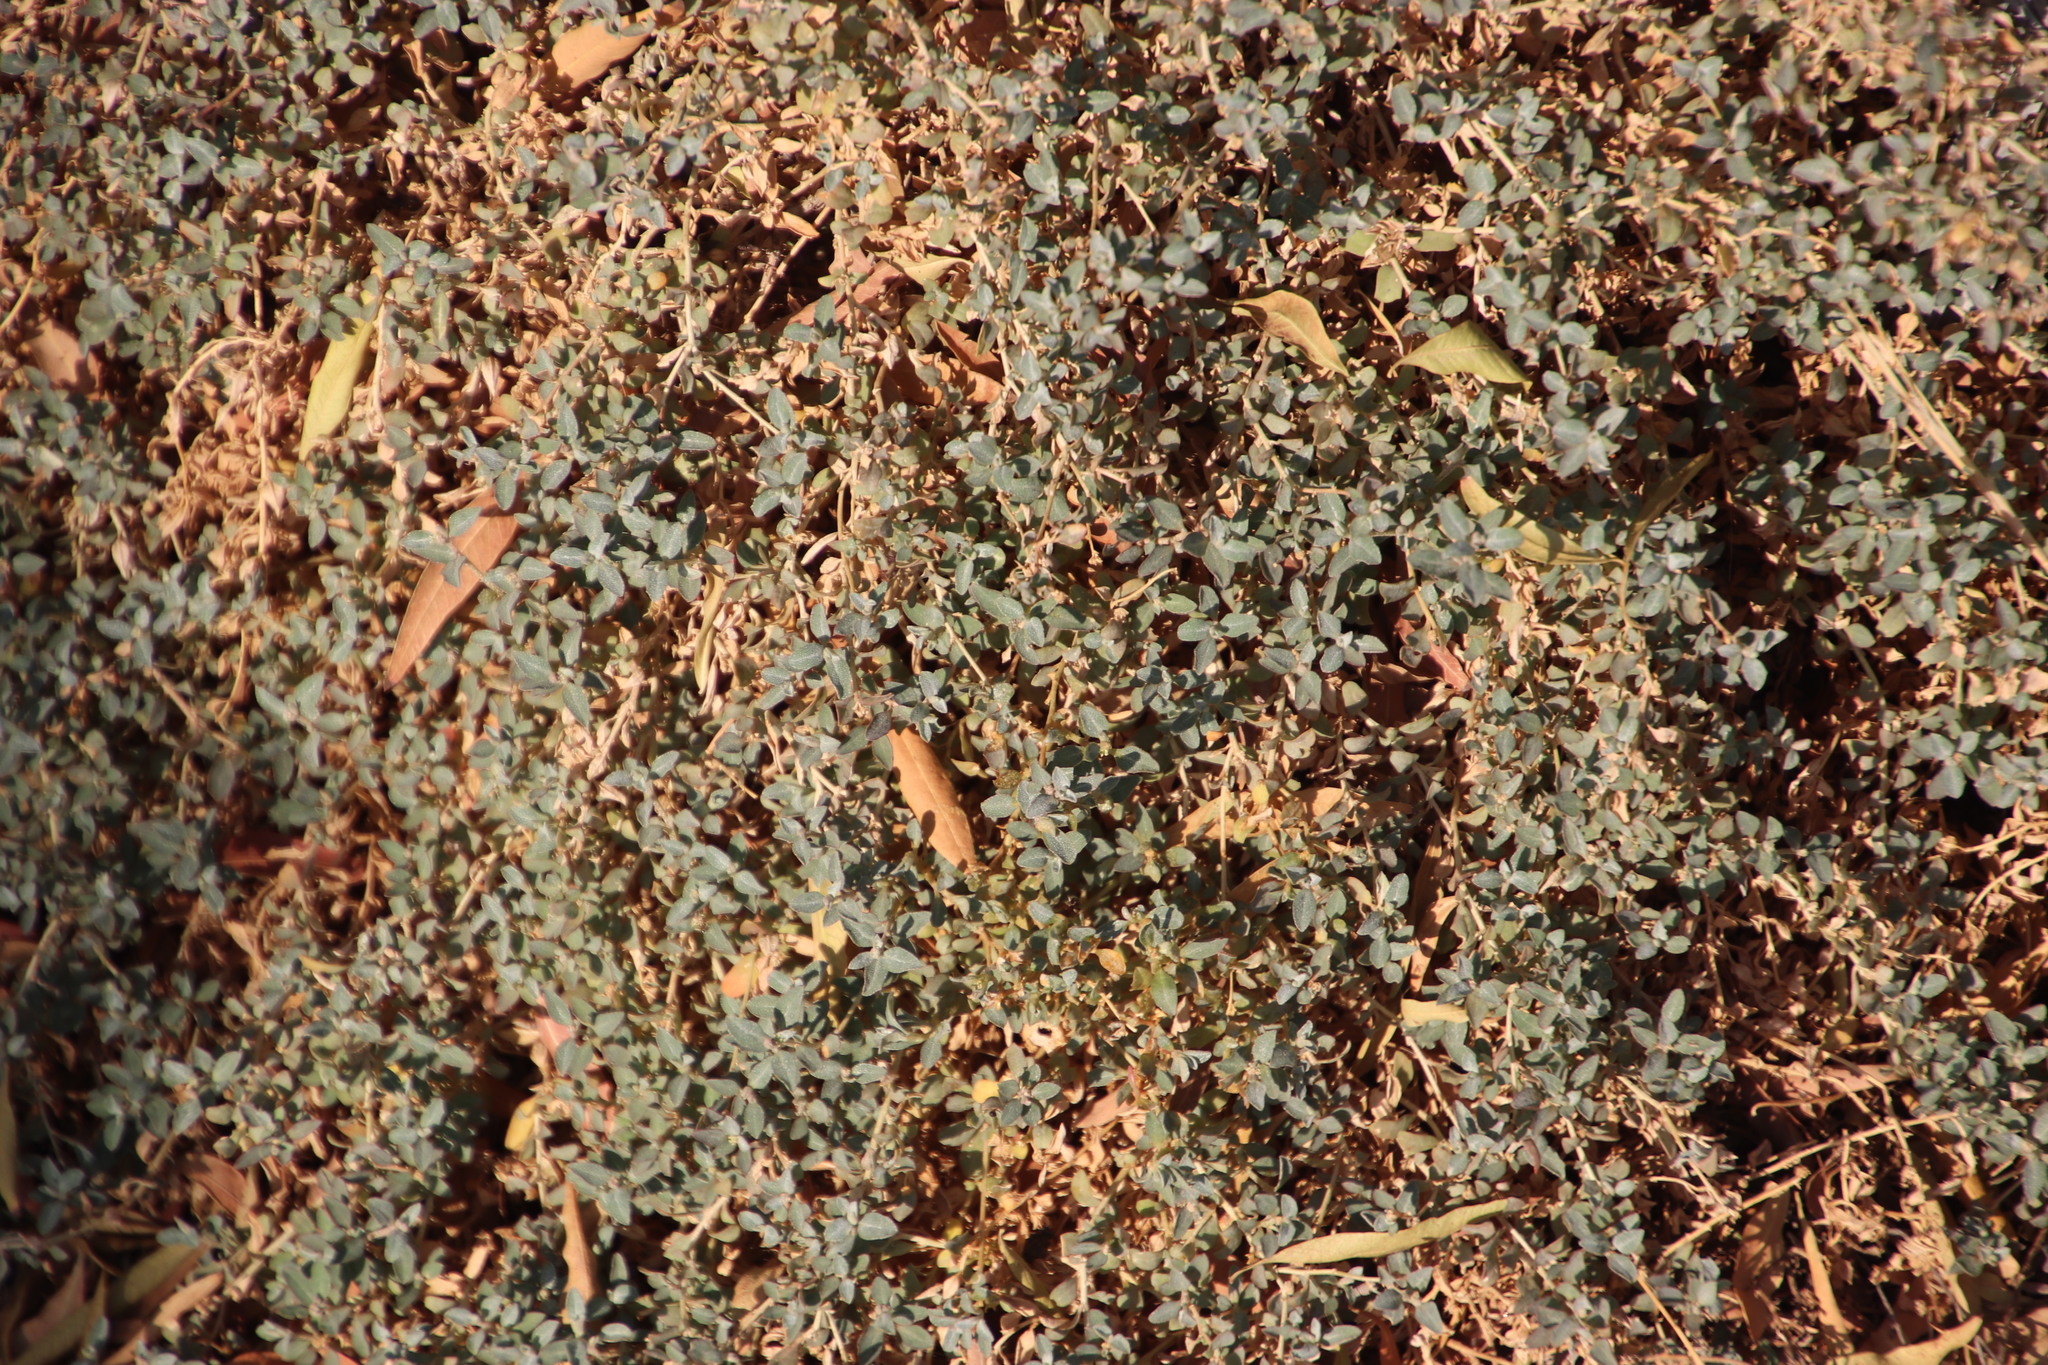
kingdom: Plantae
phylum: Tracheophyta
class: Magnoliopsida
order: Caryophyllales
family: Amaranthaceae
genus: Atriplex
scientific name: Atriplex semibaccata
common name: Australian saltbush
